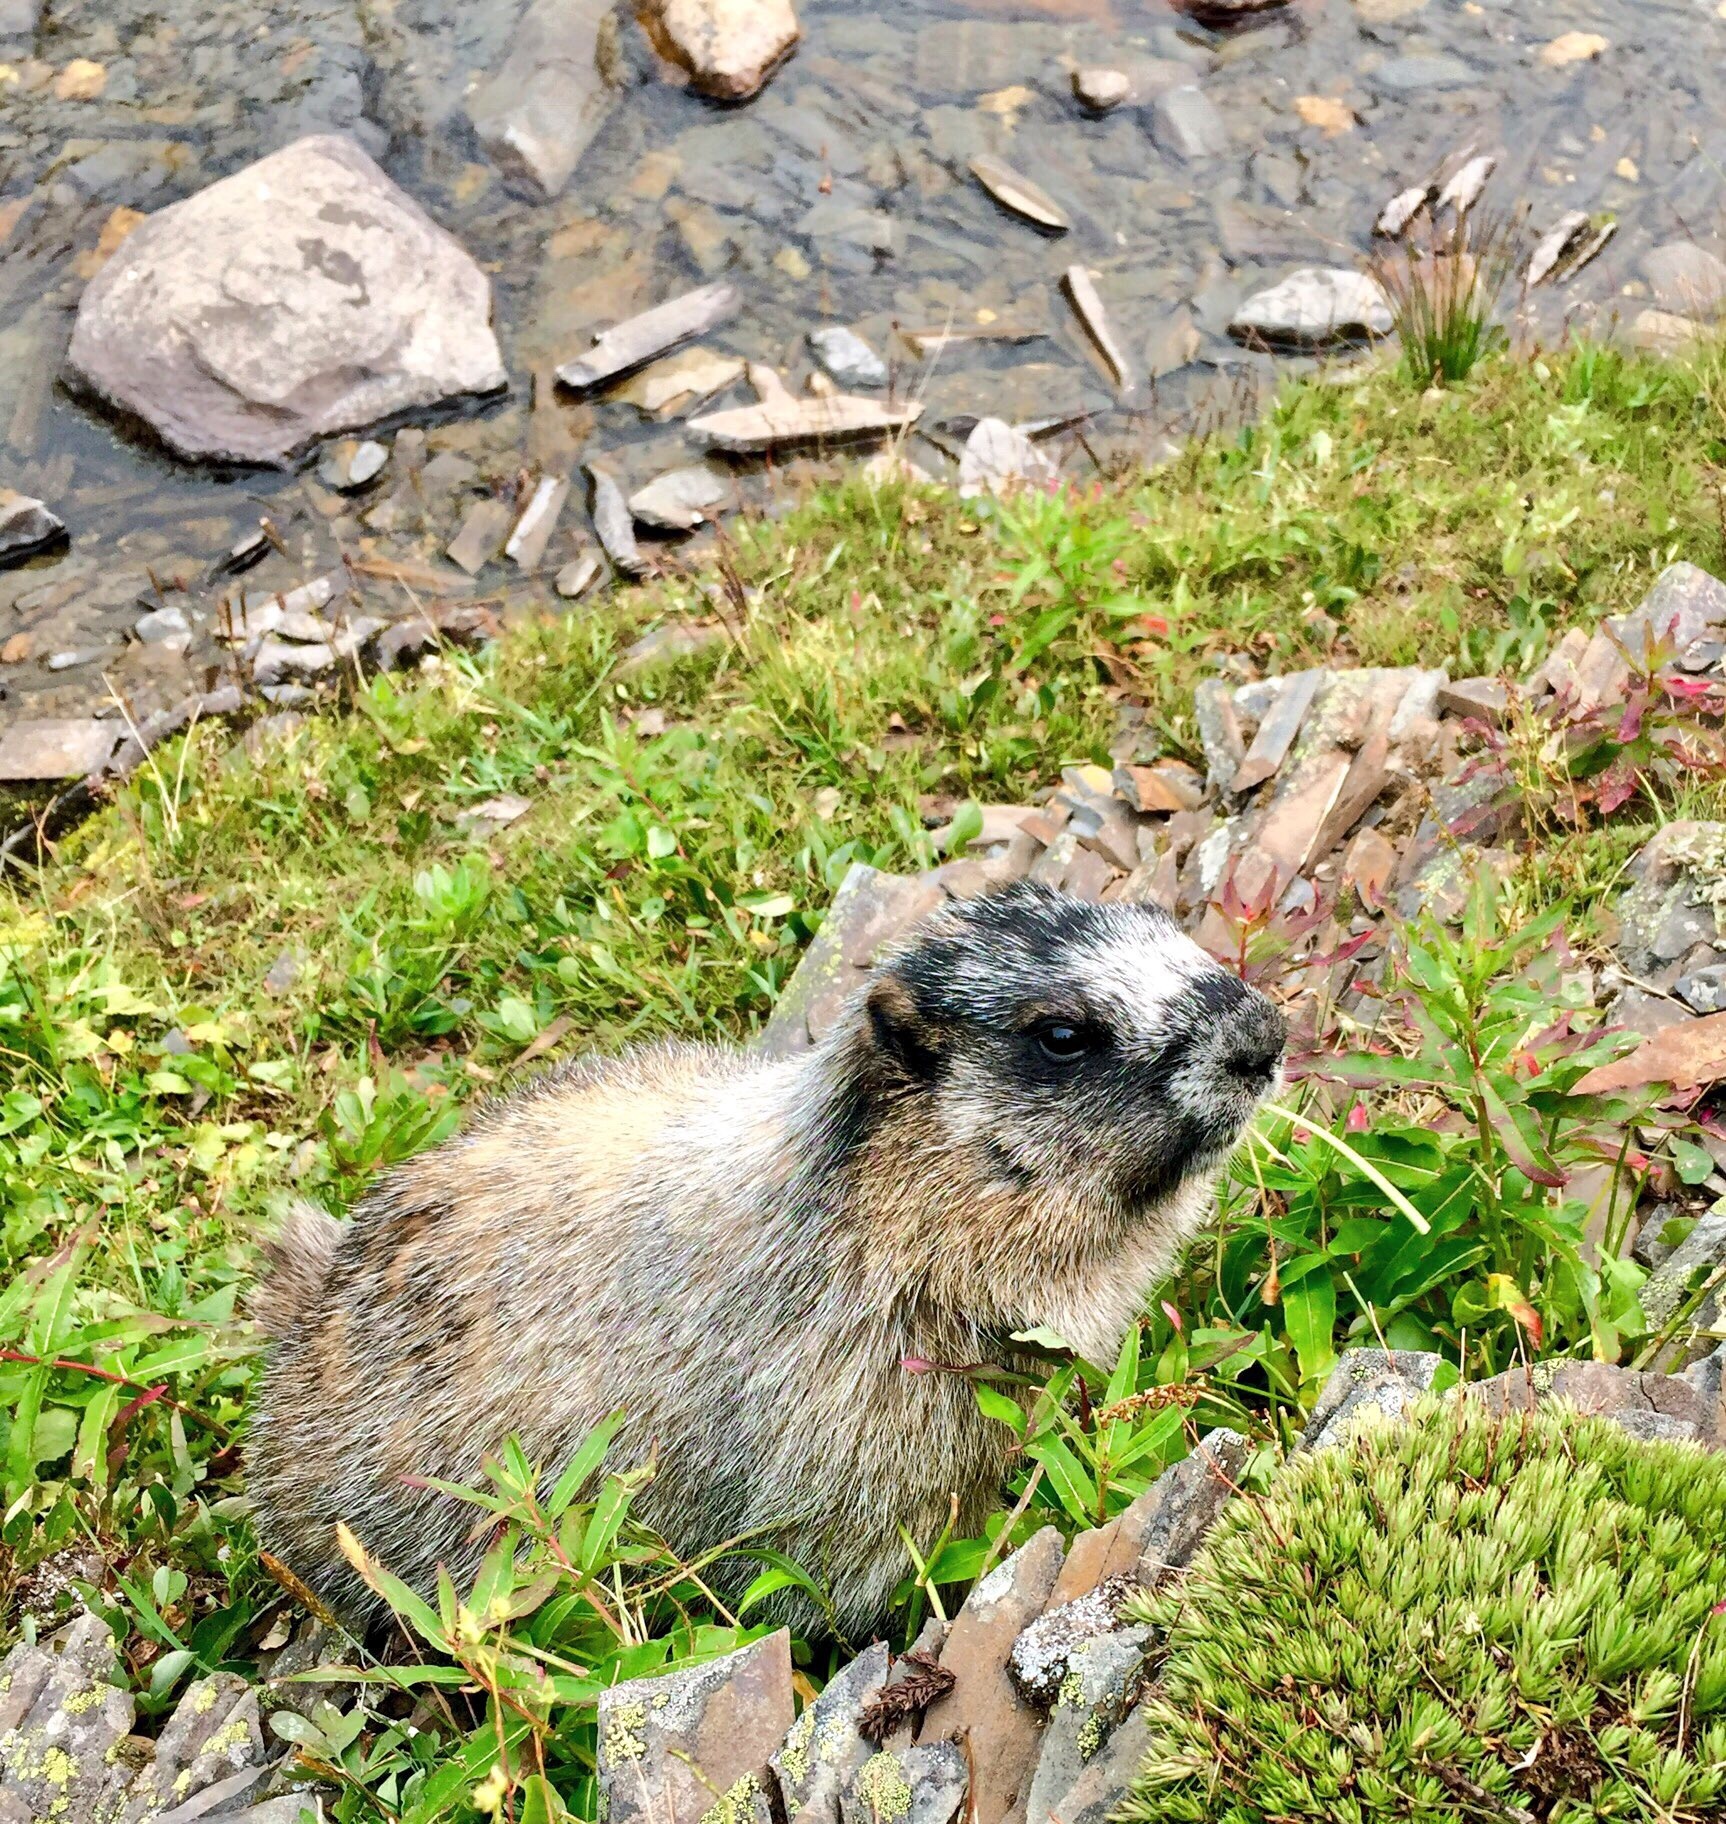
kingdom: Animalia
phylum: Chordata
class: Mammalia
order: Rodentia
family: Sciuridae
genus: Marmota
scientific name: Marmota caligata
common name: Hoary marmot
